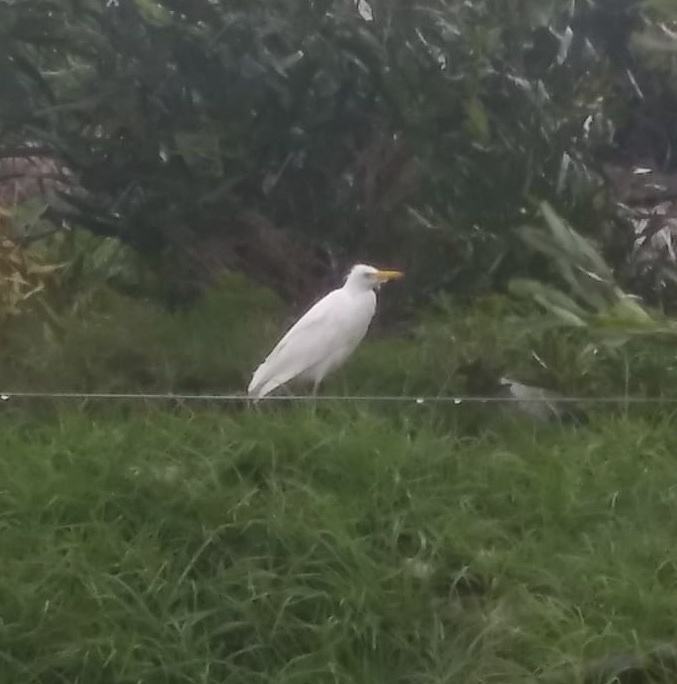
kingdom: Animalia
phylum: Chordata
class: Aves
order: Pelecaniformes
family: Ardeidae
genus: Bubulcus
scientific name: Bubulcus ibis
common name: Cattle egret
